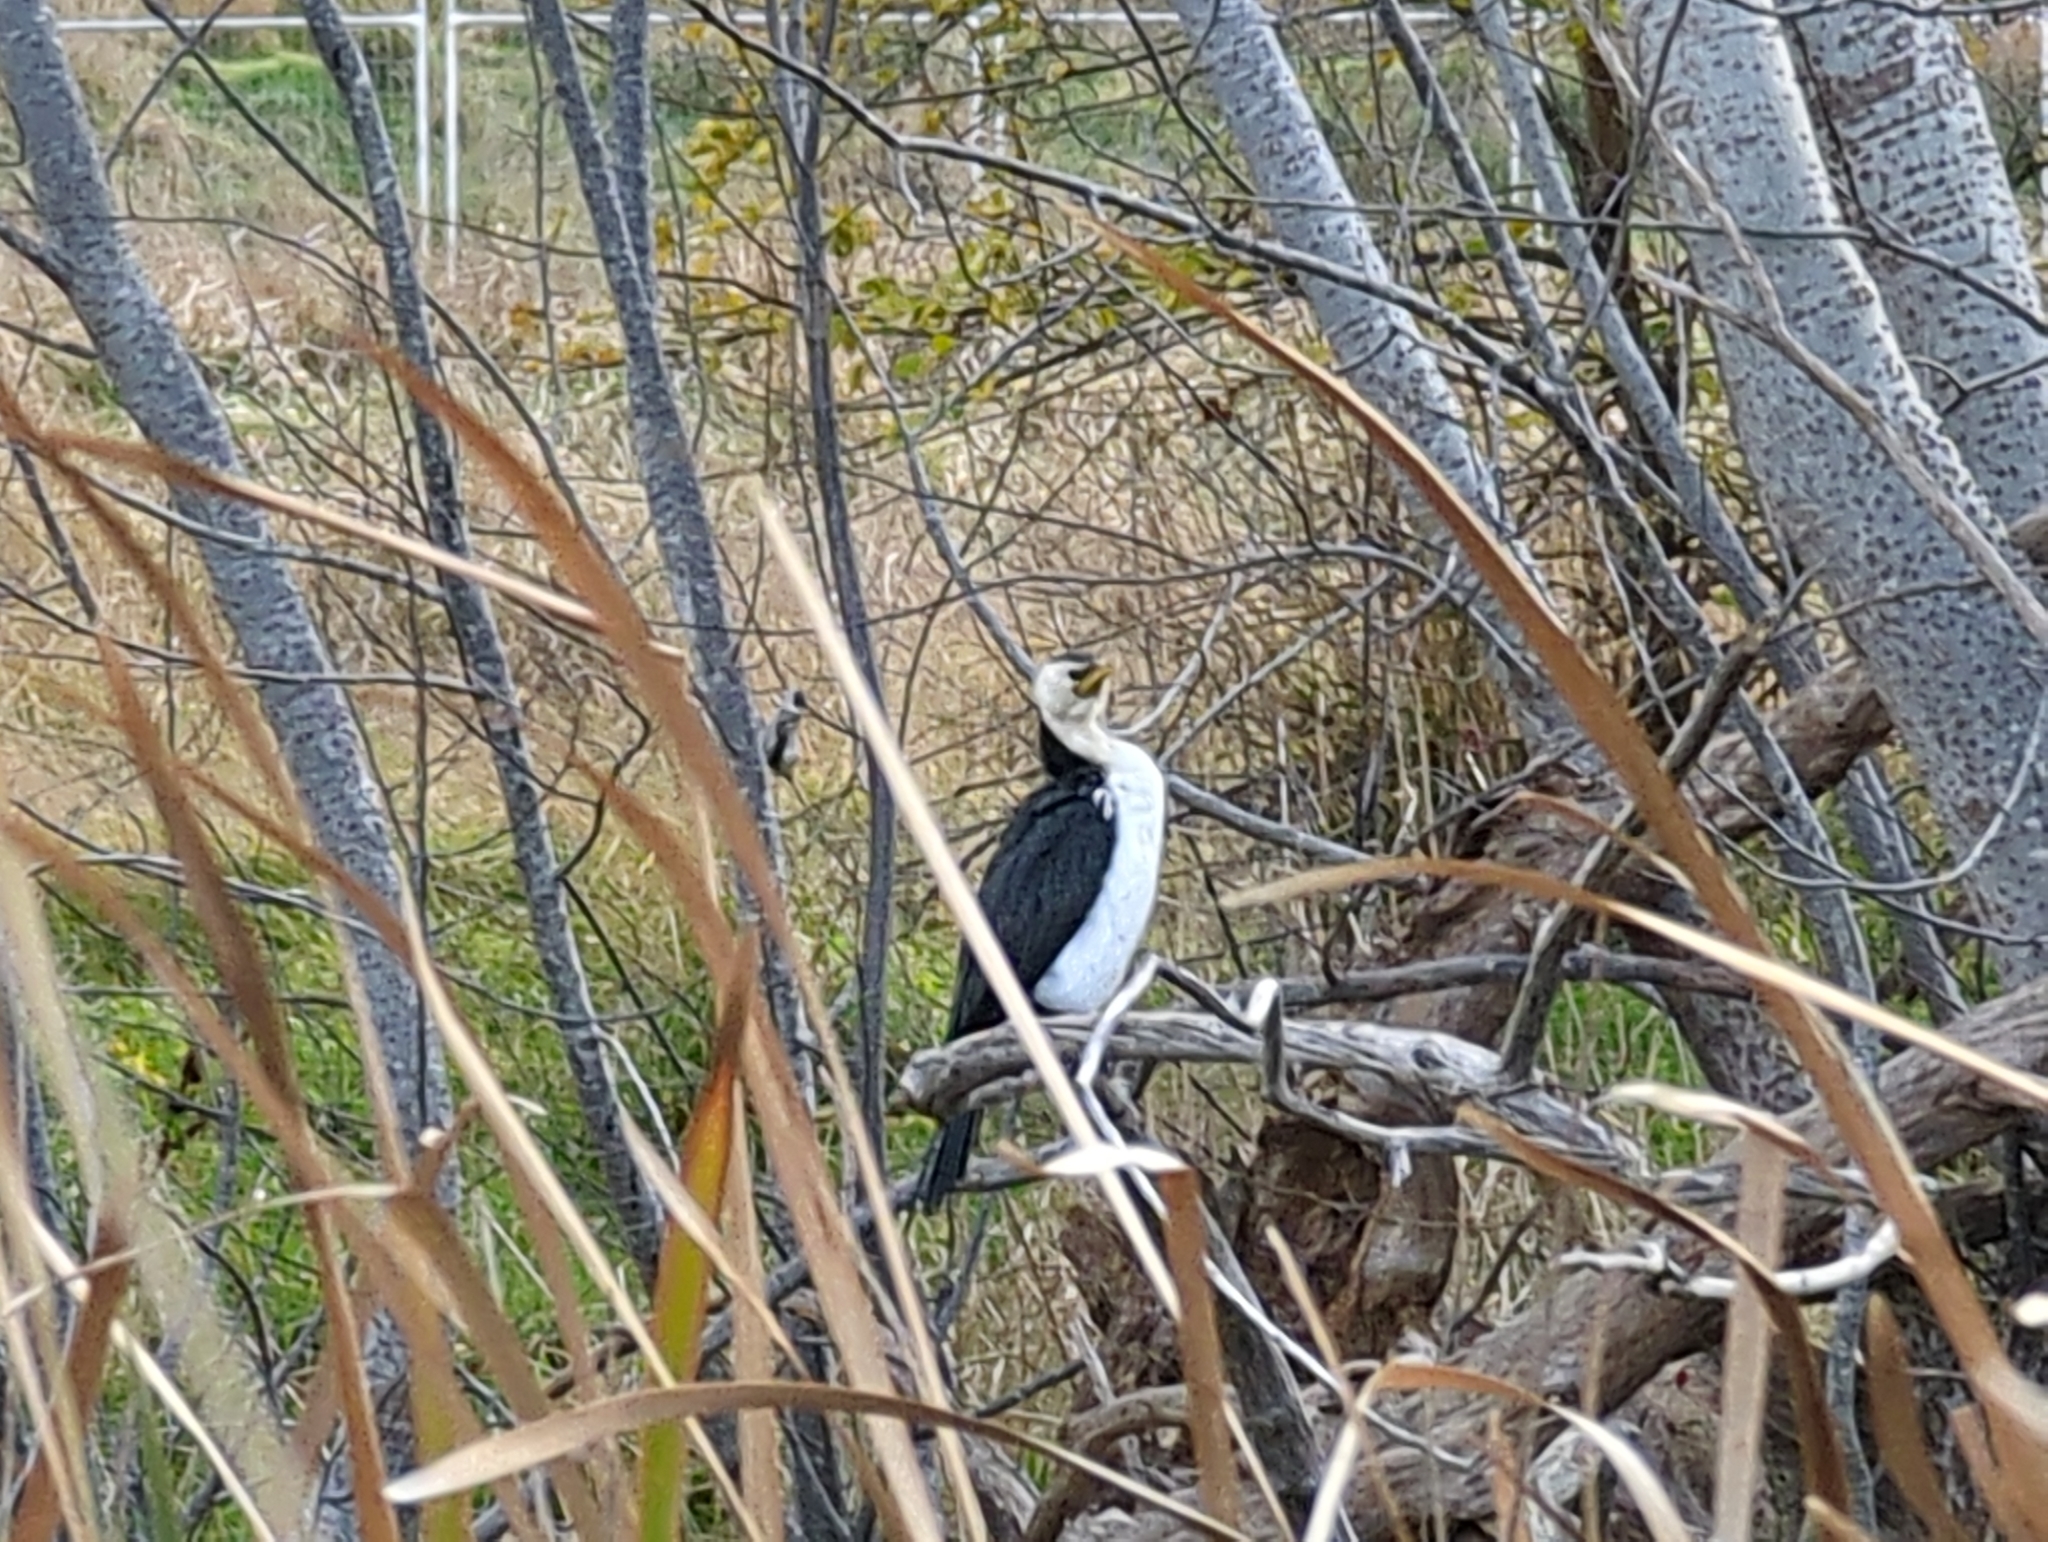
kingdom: Animalia
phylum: Chordata
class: Aves
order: Suliformes
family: Phalacrocoracidae
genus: Microcarbo
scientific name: Microcarbo melanoleucos
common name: Little pied cormorant
